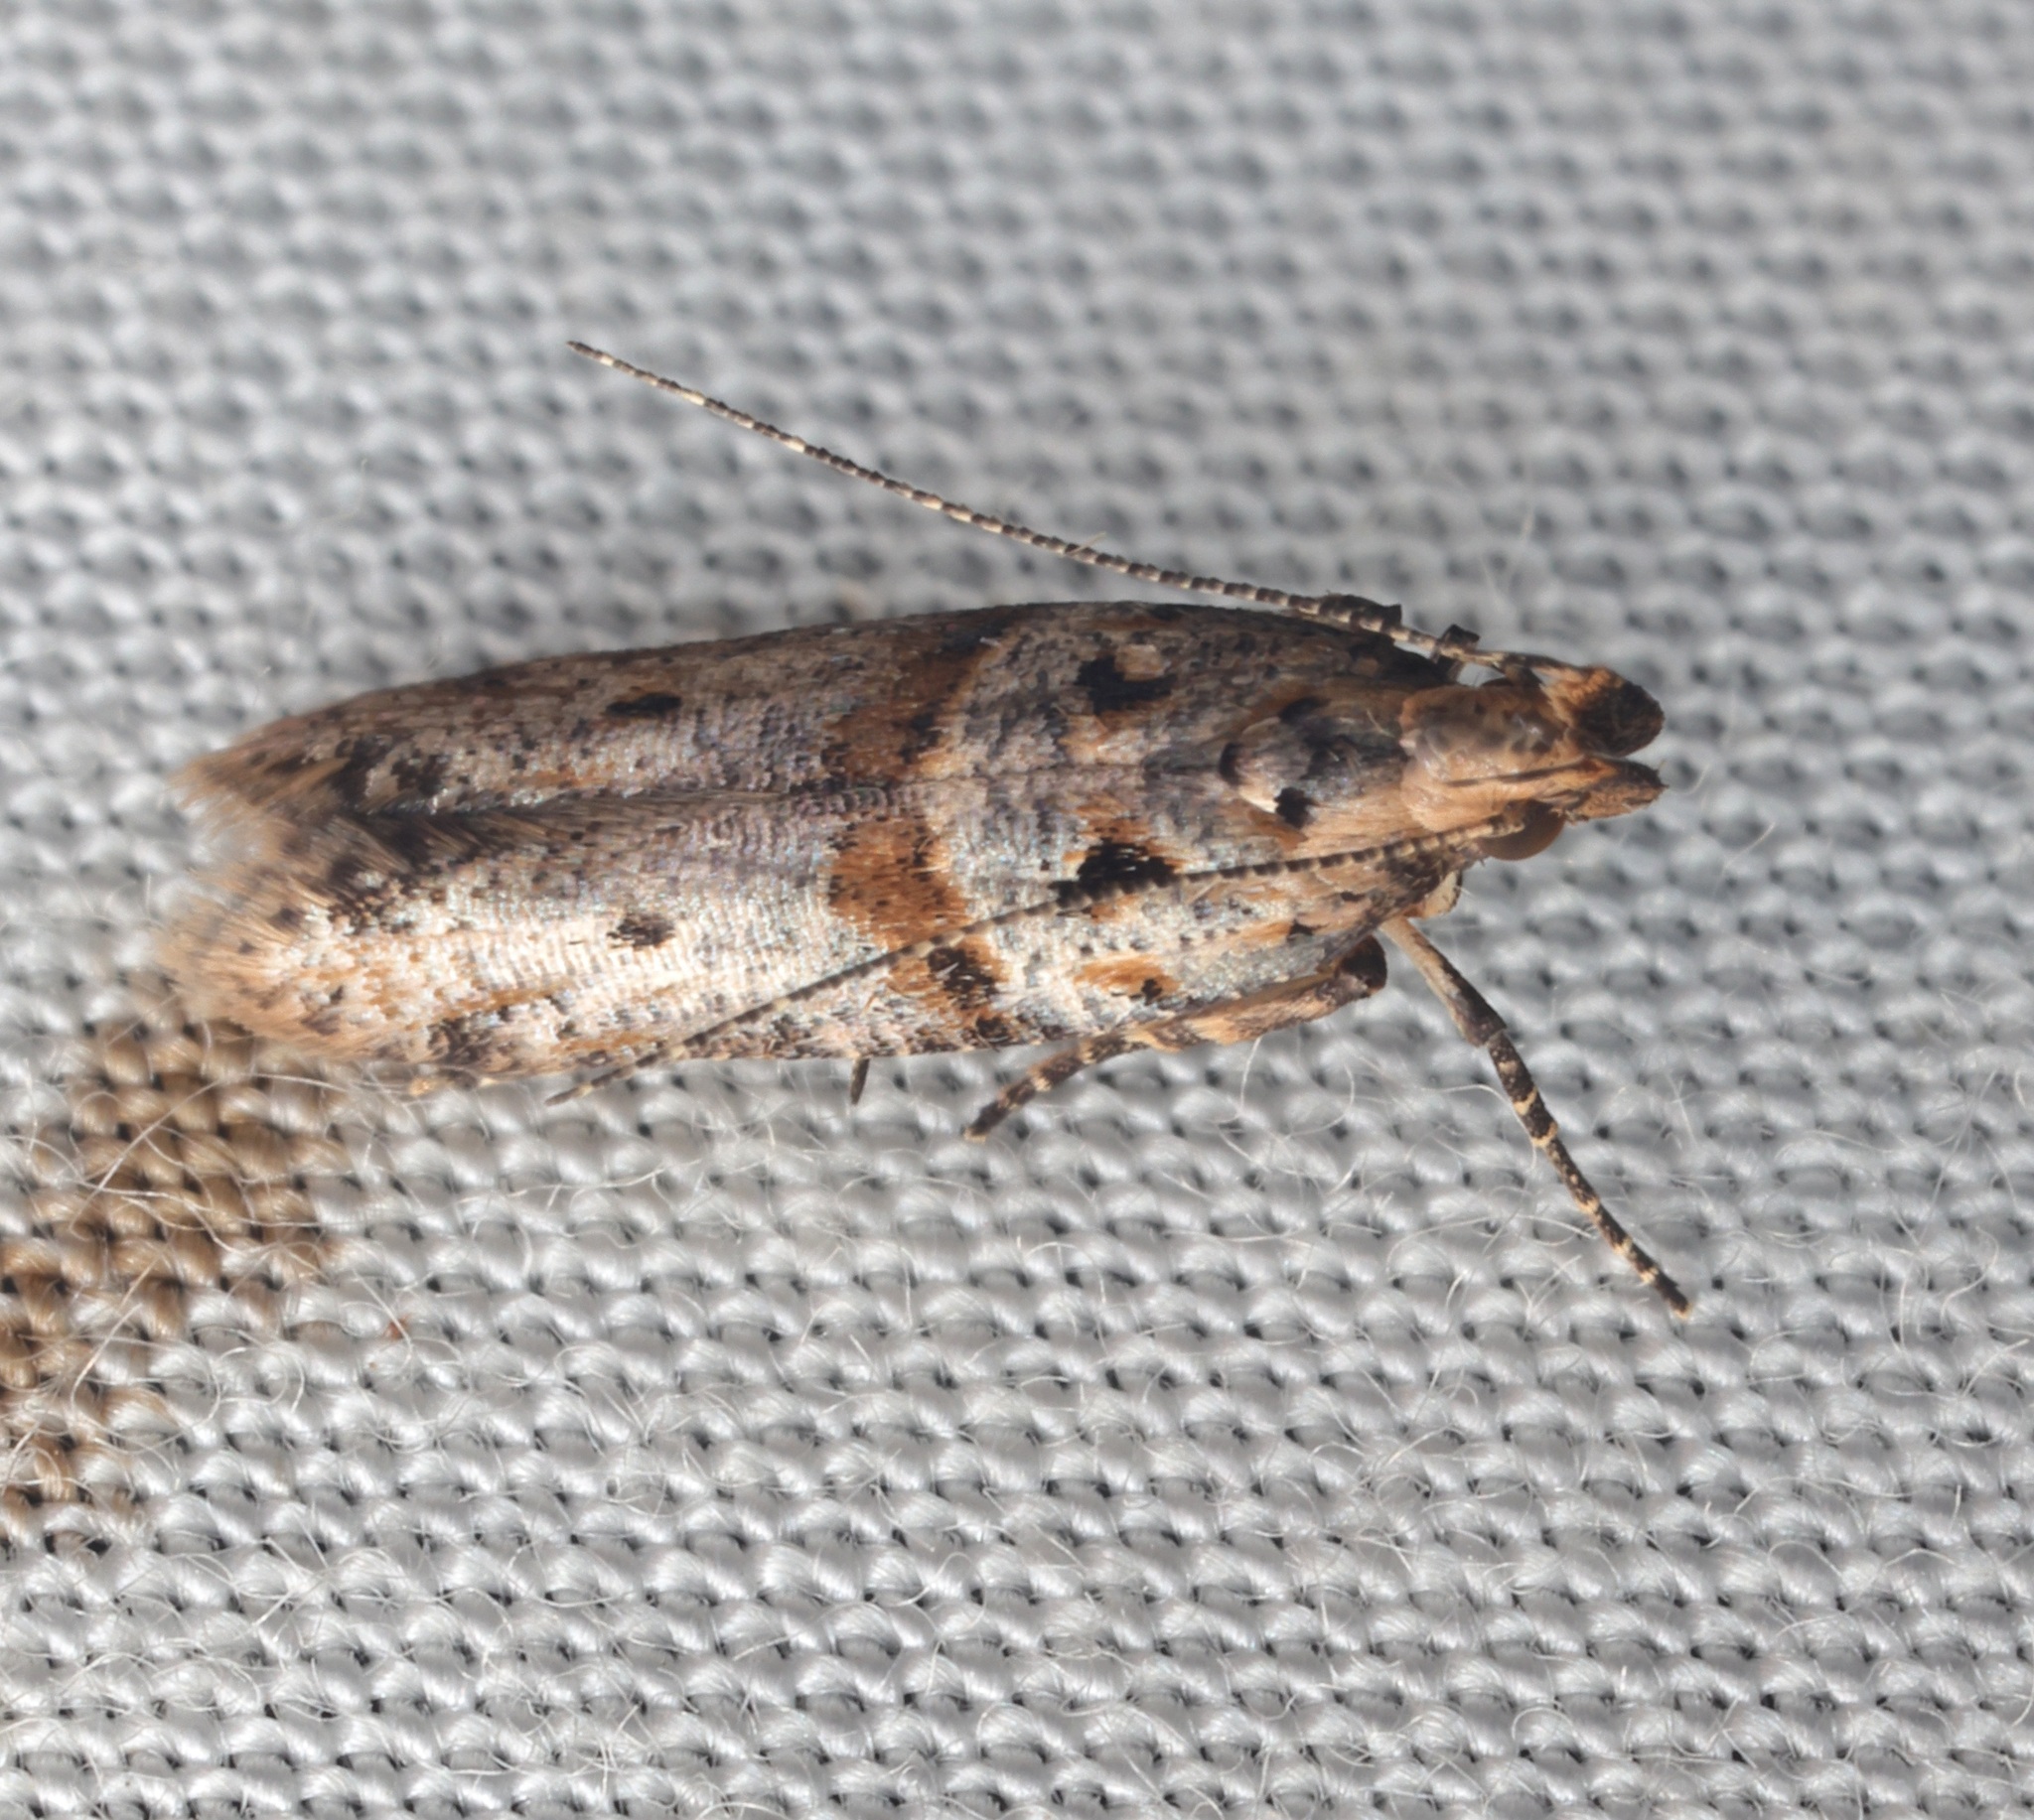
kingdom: Animalia
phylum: Arthropoda
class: Insecta
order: Lepidoptera
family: Gelechiidae
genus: Deltophora
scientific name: Deltophora polliniferens
